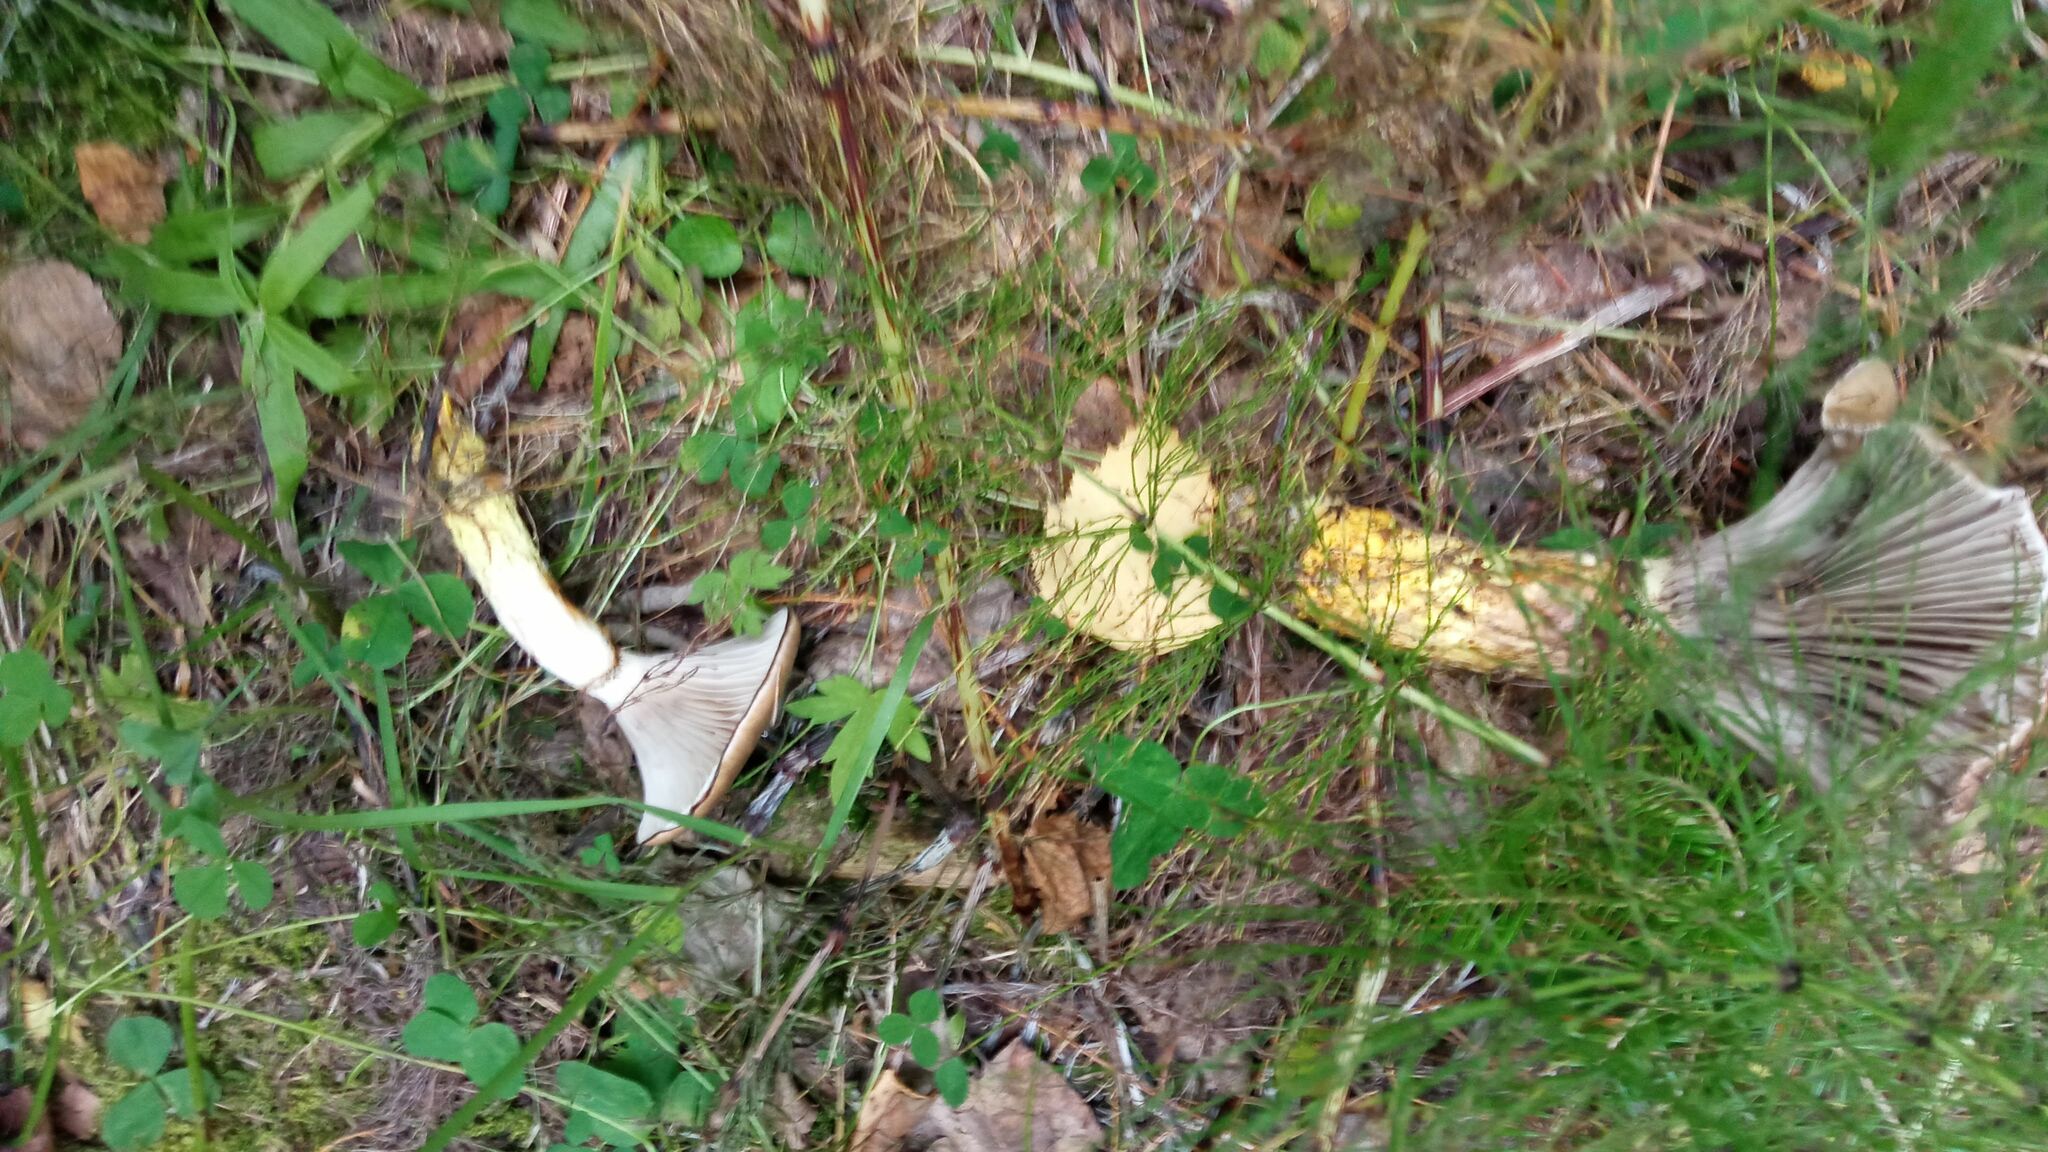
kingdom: Fungi
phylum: Basidiomycota
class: Agaricomycetes
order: Boletales
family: Gomphidiaceae
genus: Gomphidius
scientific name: Gomphidius glutinosus
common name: Slimy spike
